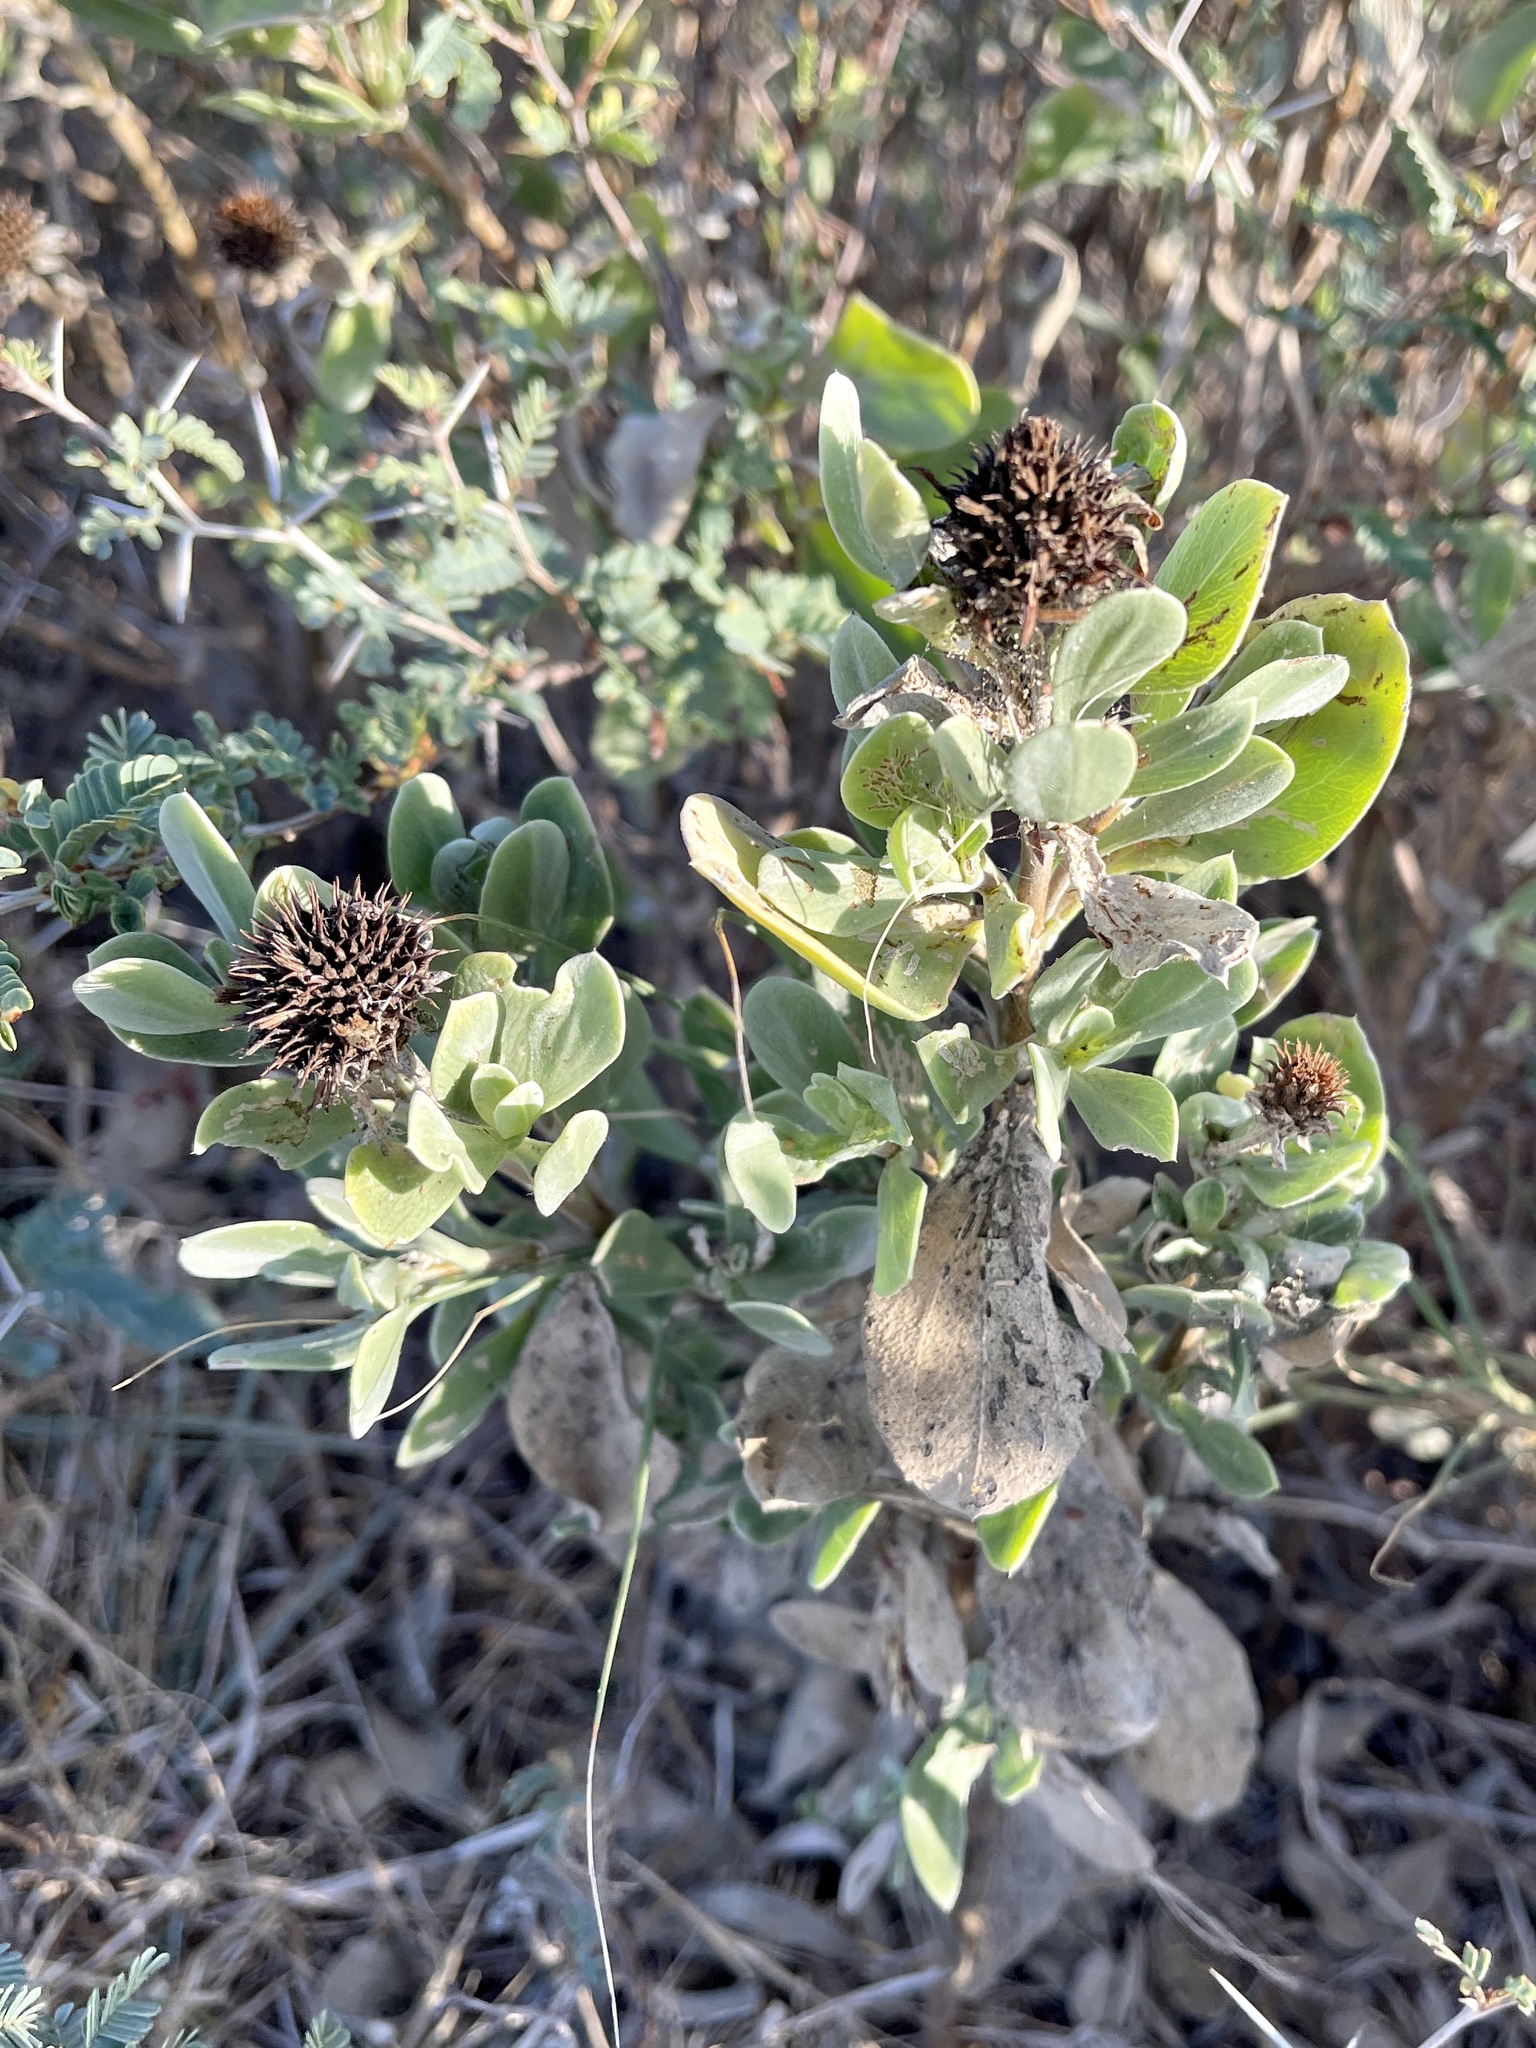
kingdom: Plantae
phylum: Tracheophyta
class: Magnoliopsida
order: Asterales
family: Asteraceae
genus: Borrichia
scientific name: Borrichia frutescens
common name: Sea oxeye
